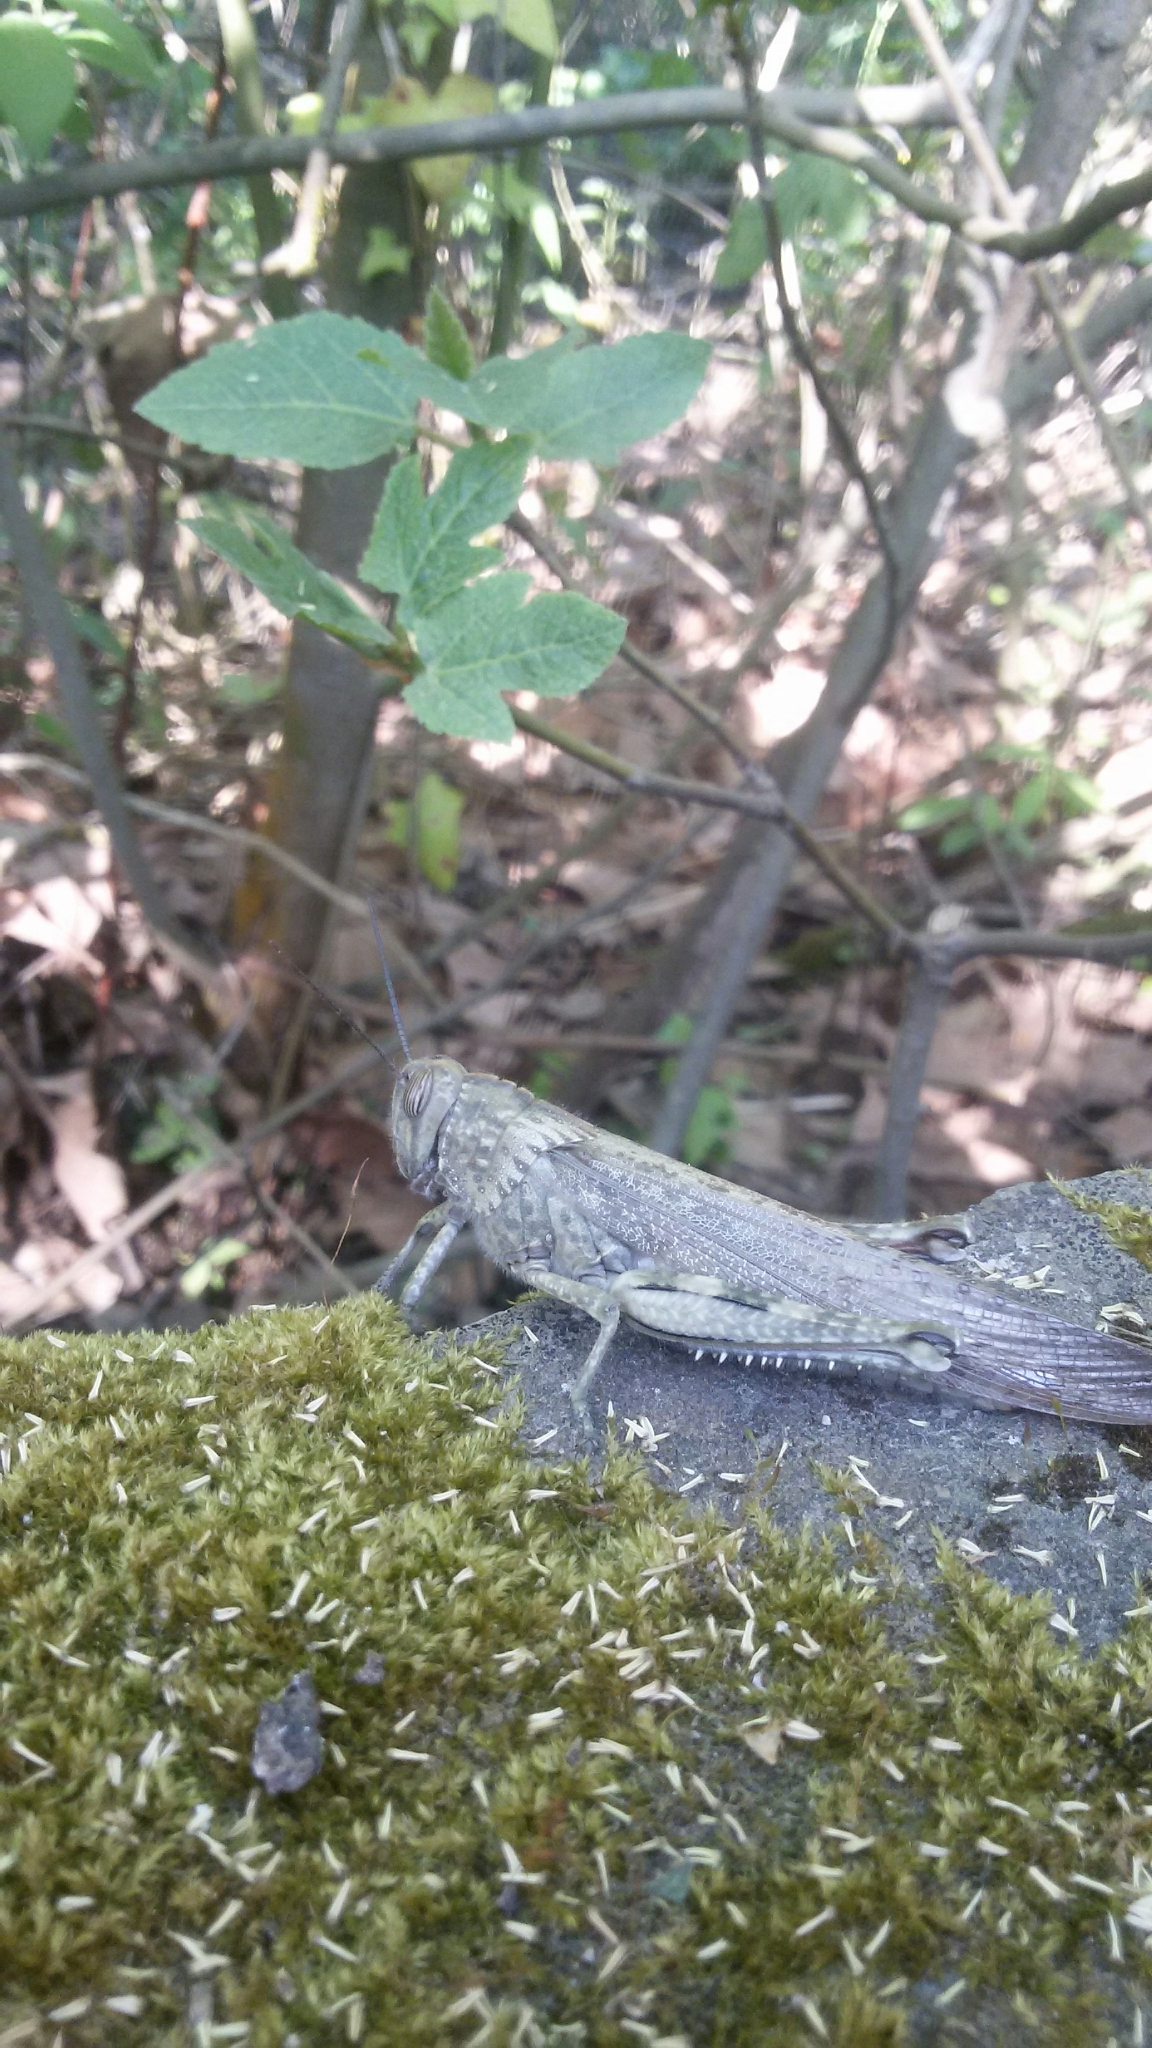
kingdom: Animalia
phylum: Arthropoda
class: Insecta
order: Orthoptera
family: Acrididae
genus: Anacridium
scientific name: Anacridium aegyptium
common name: Egyptian grasshopper
